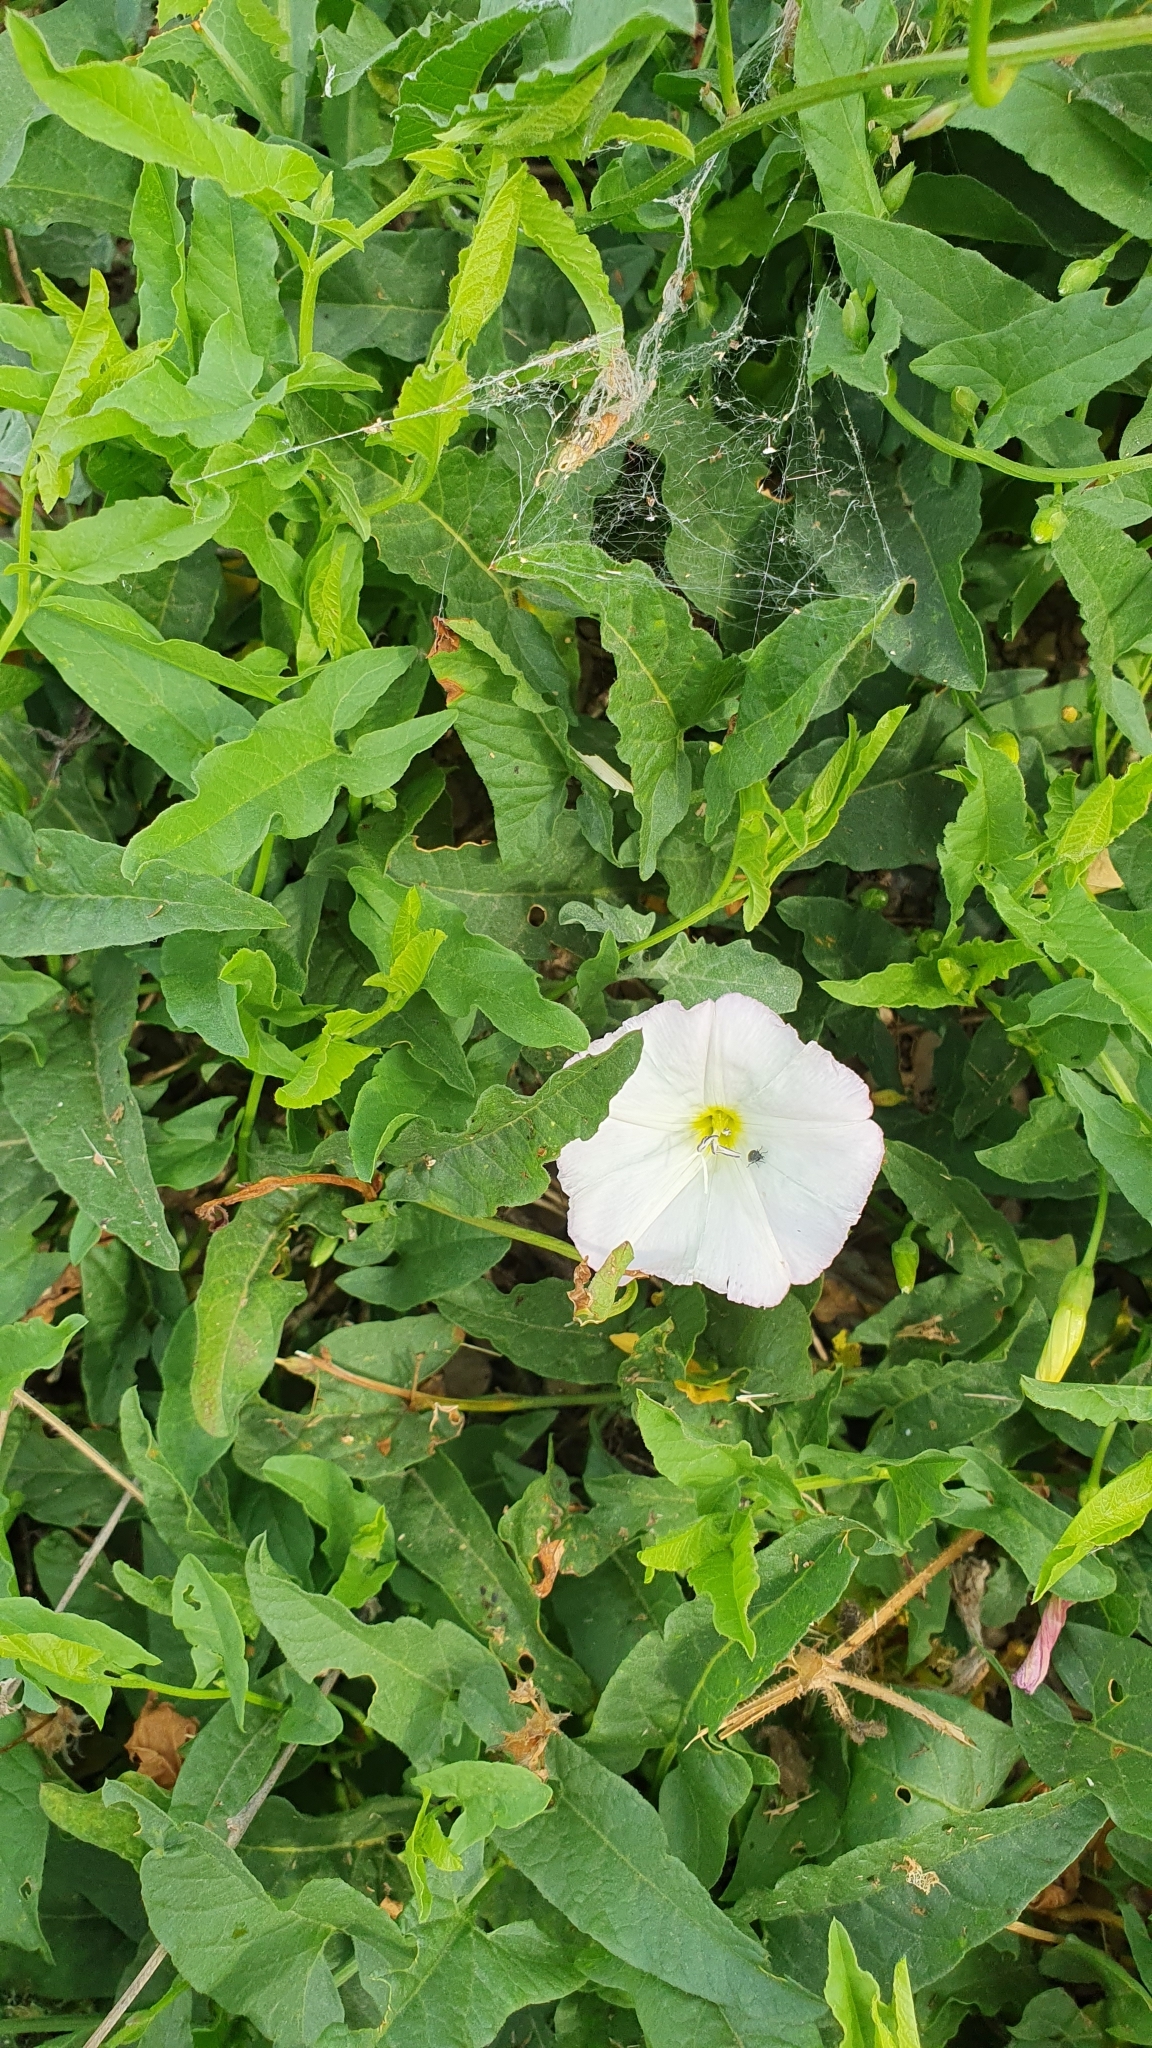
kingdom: Plantae
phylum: Tracheophyta
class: Magnoliopsida
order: Solanales
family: Convolvulaceae
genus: Convolvulus
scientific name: Convolvulus arvensis
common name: Field bindweed
